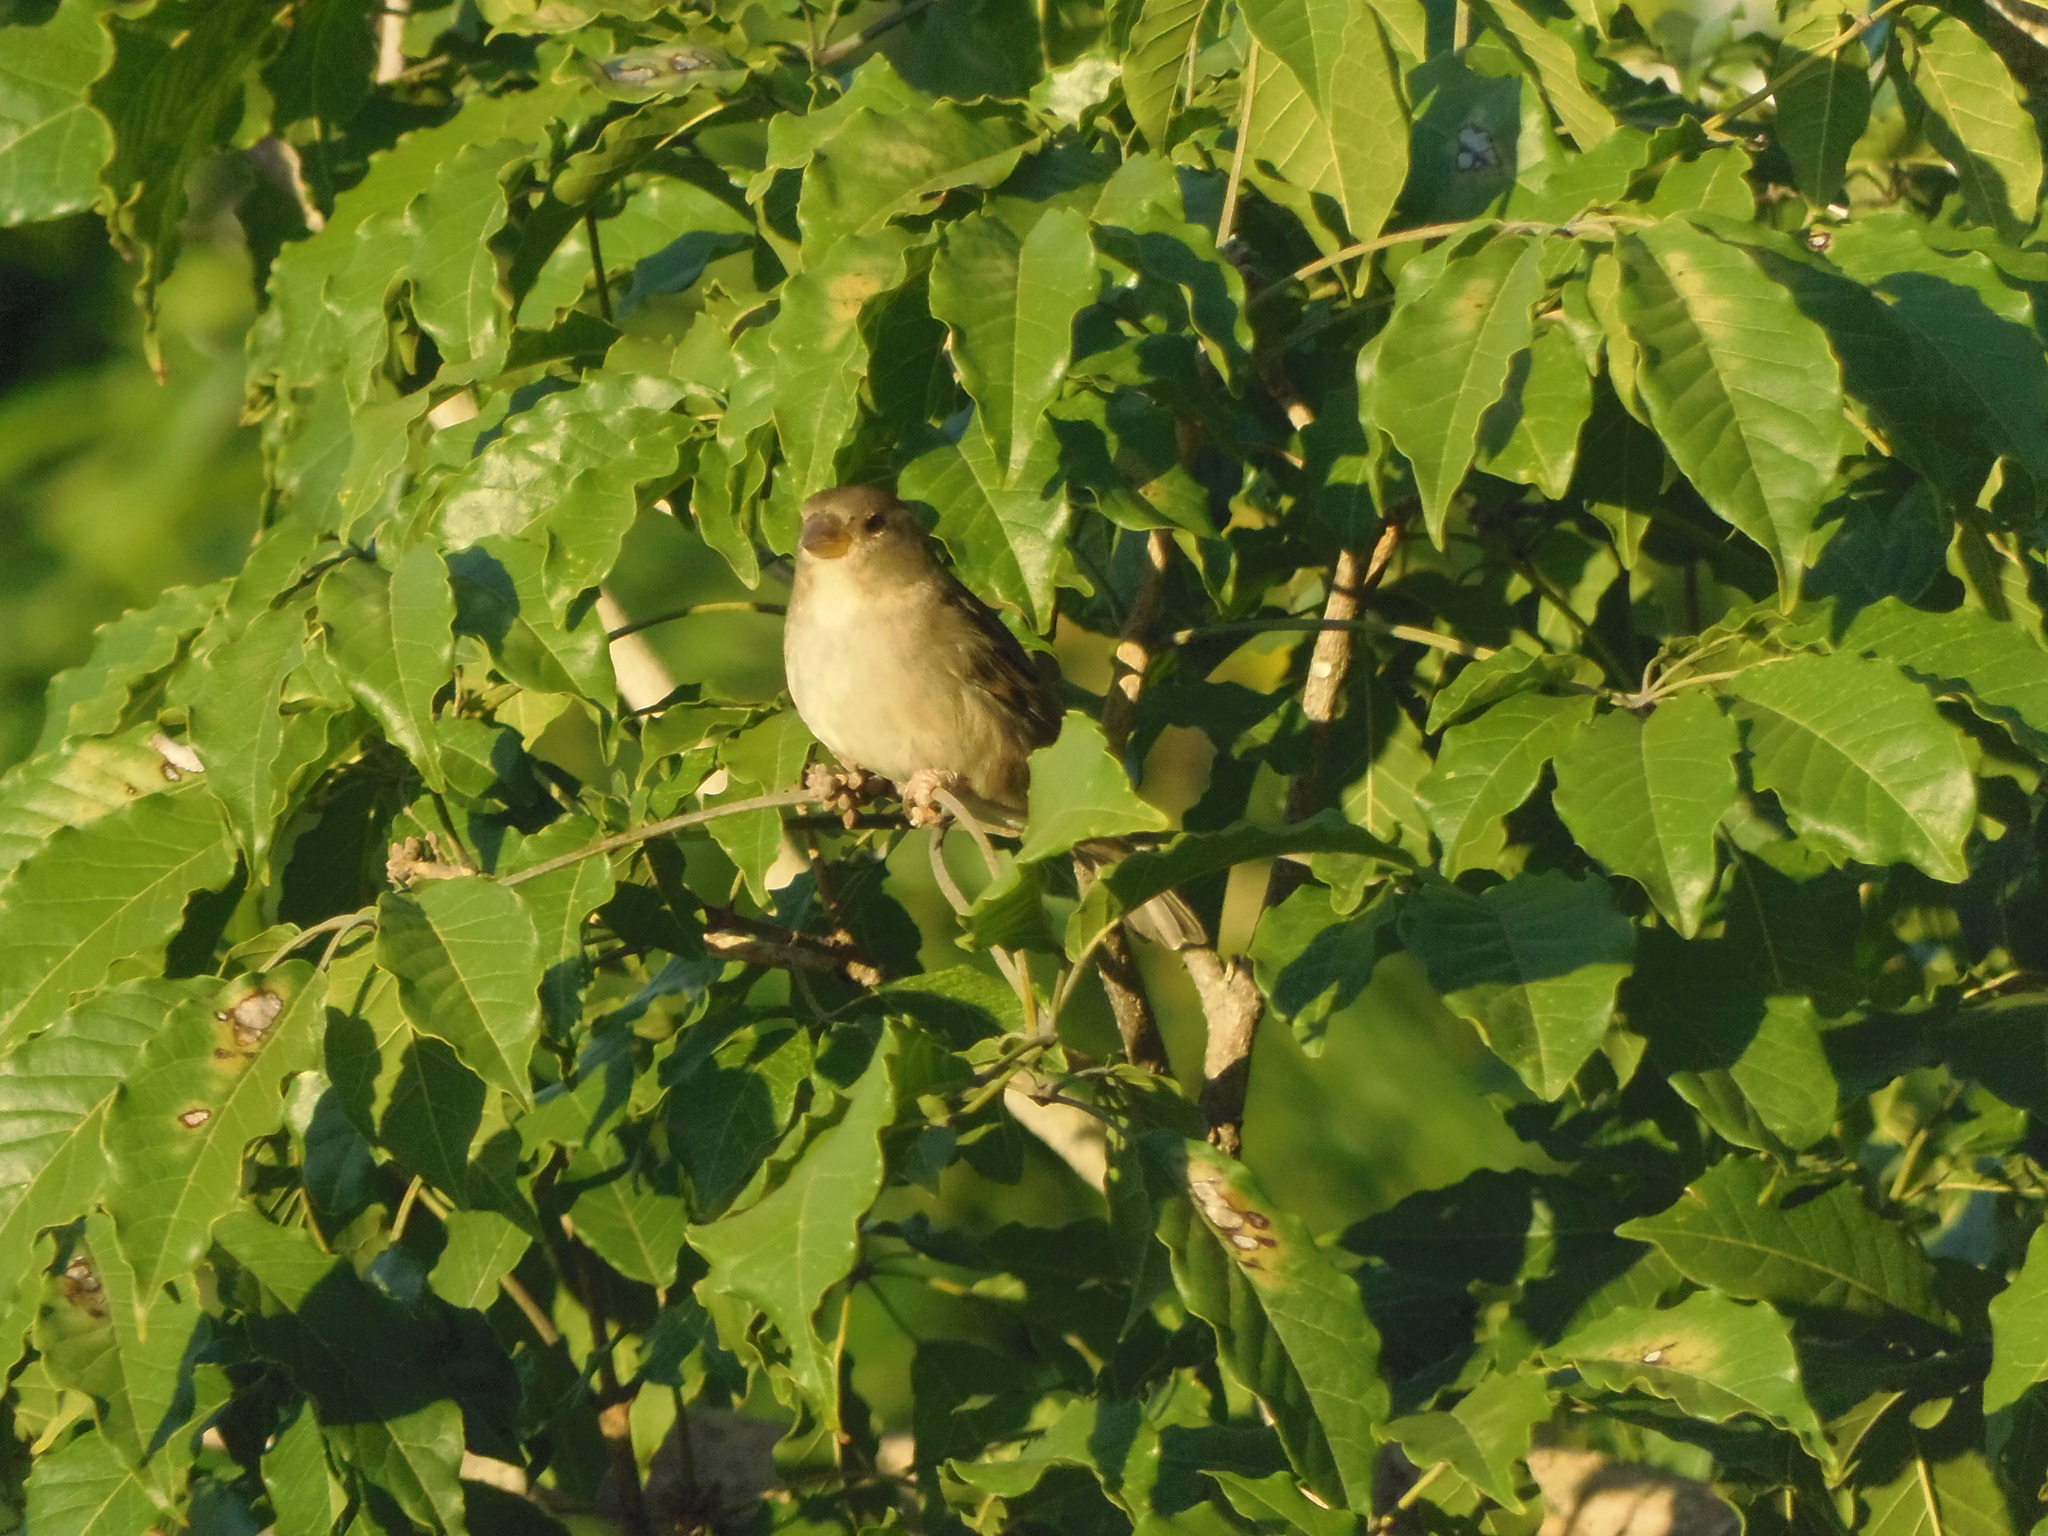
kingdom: Animalia
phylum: Chordata
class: Aves
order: Passeriformes
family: Passeridae
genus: Passer
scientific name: Passer domesticus
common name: House sparrow
